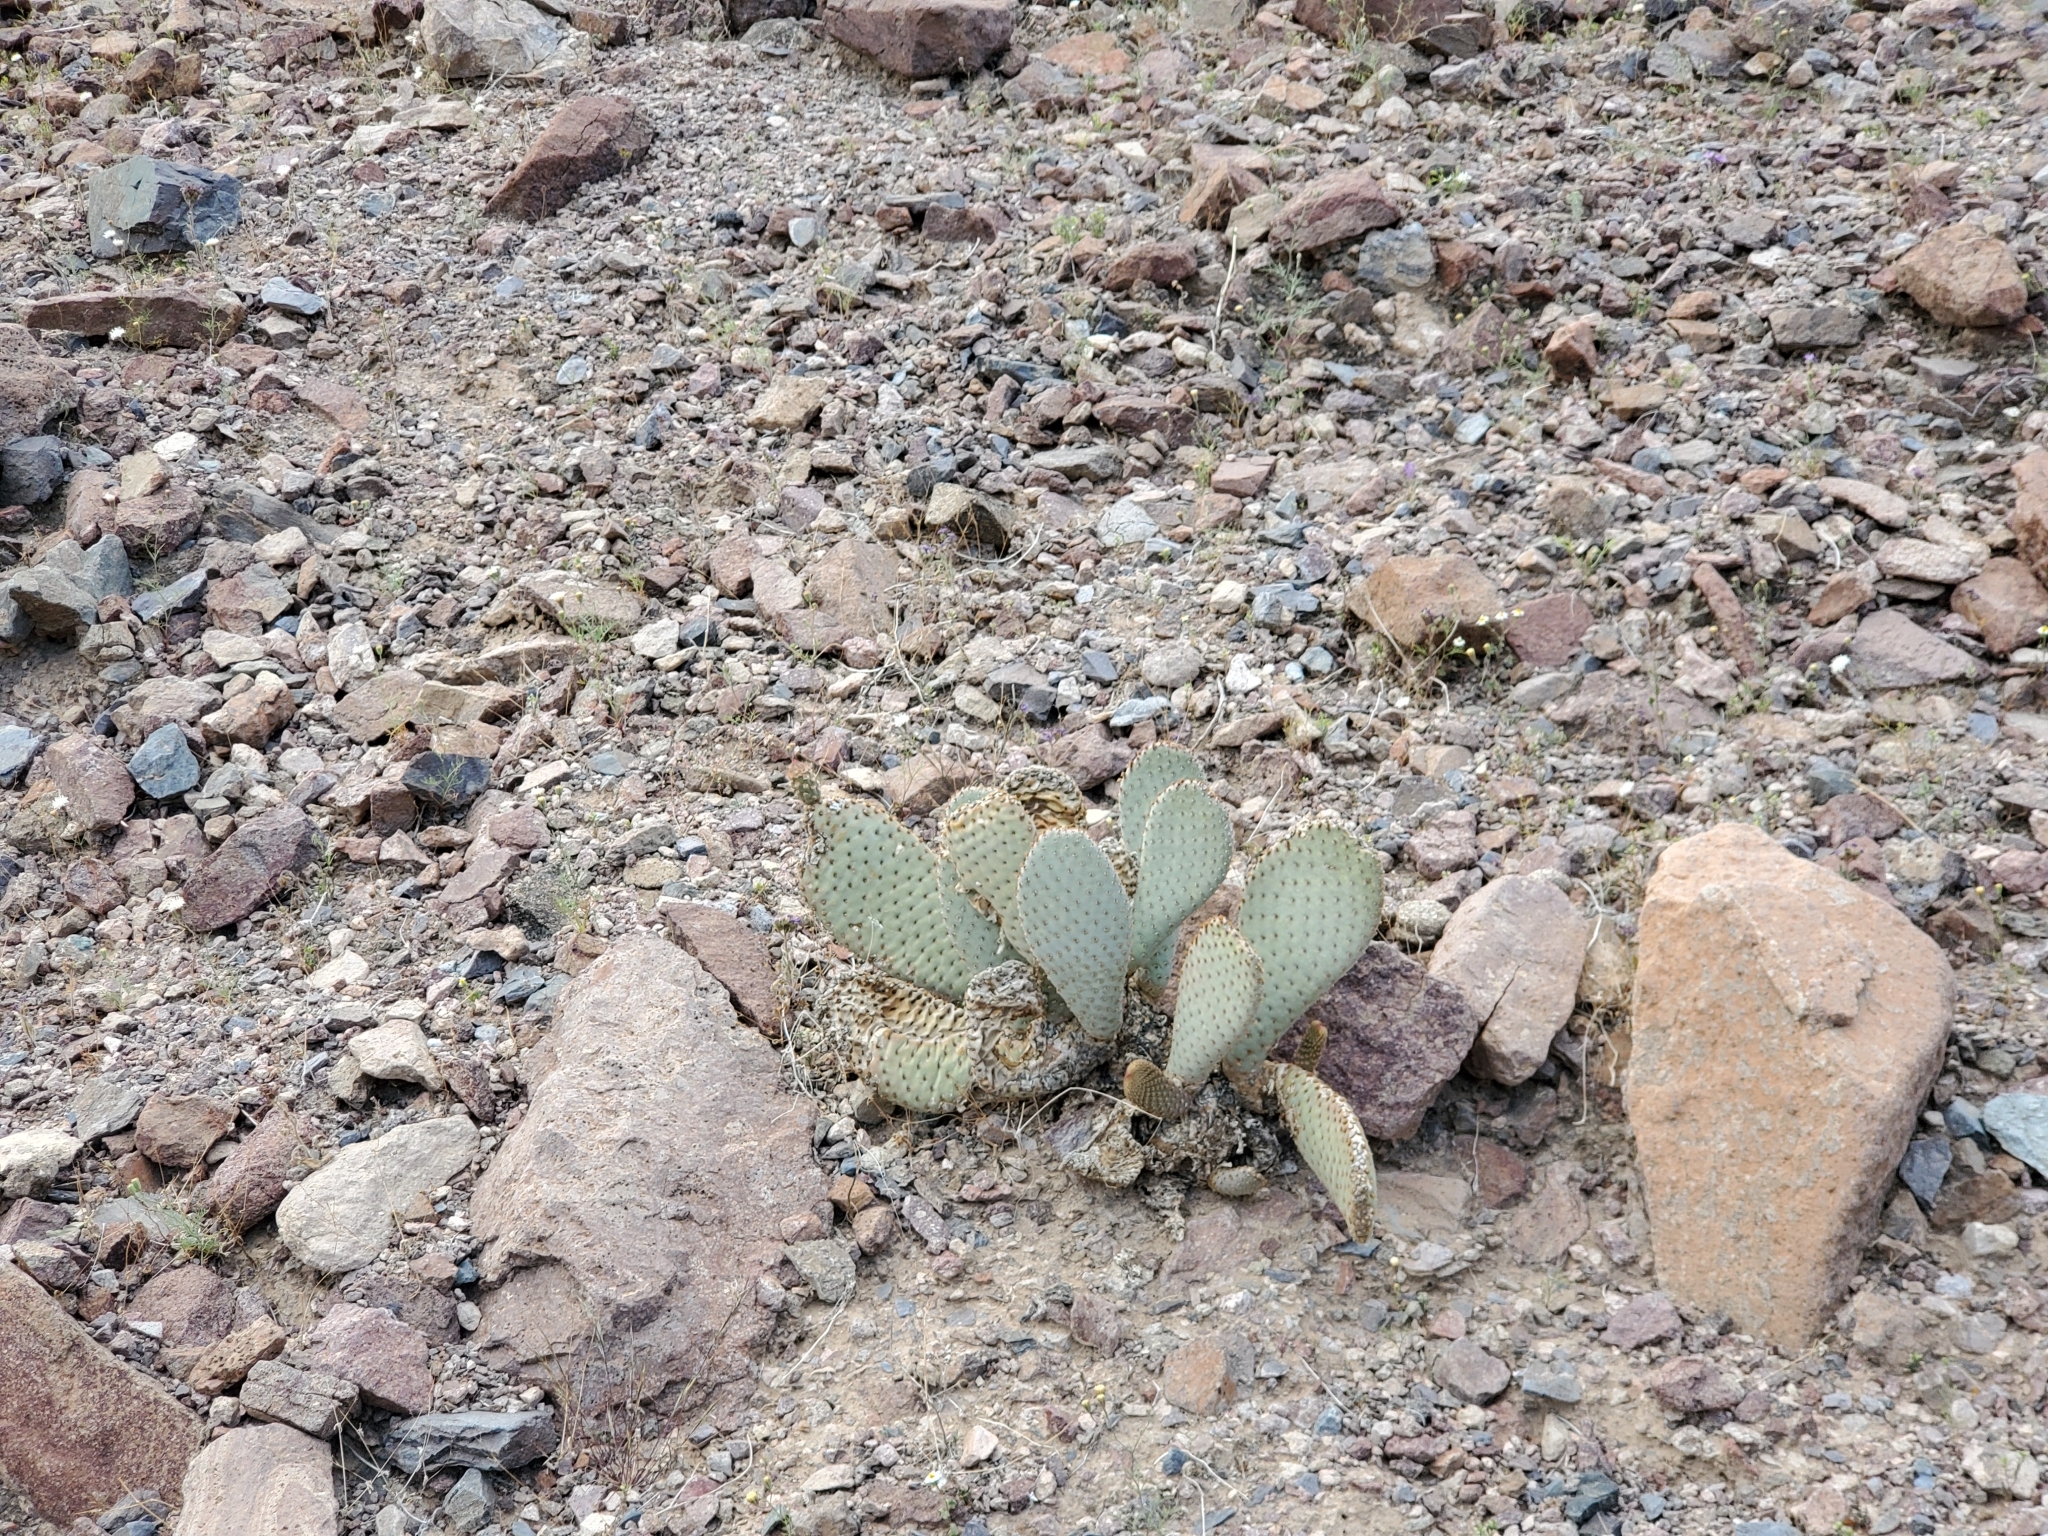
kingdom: Plantae
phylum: Tracheophyta
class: Magnoliopsida
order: Caryophyllales
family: Cactaceae
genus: Opuntia
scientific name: Opuntia basilaris
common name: Beavertail prickly-pear
